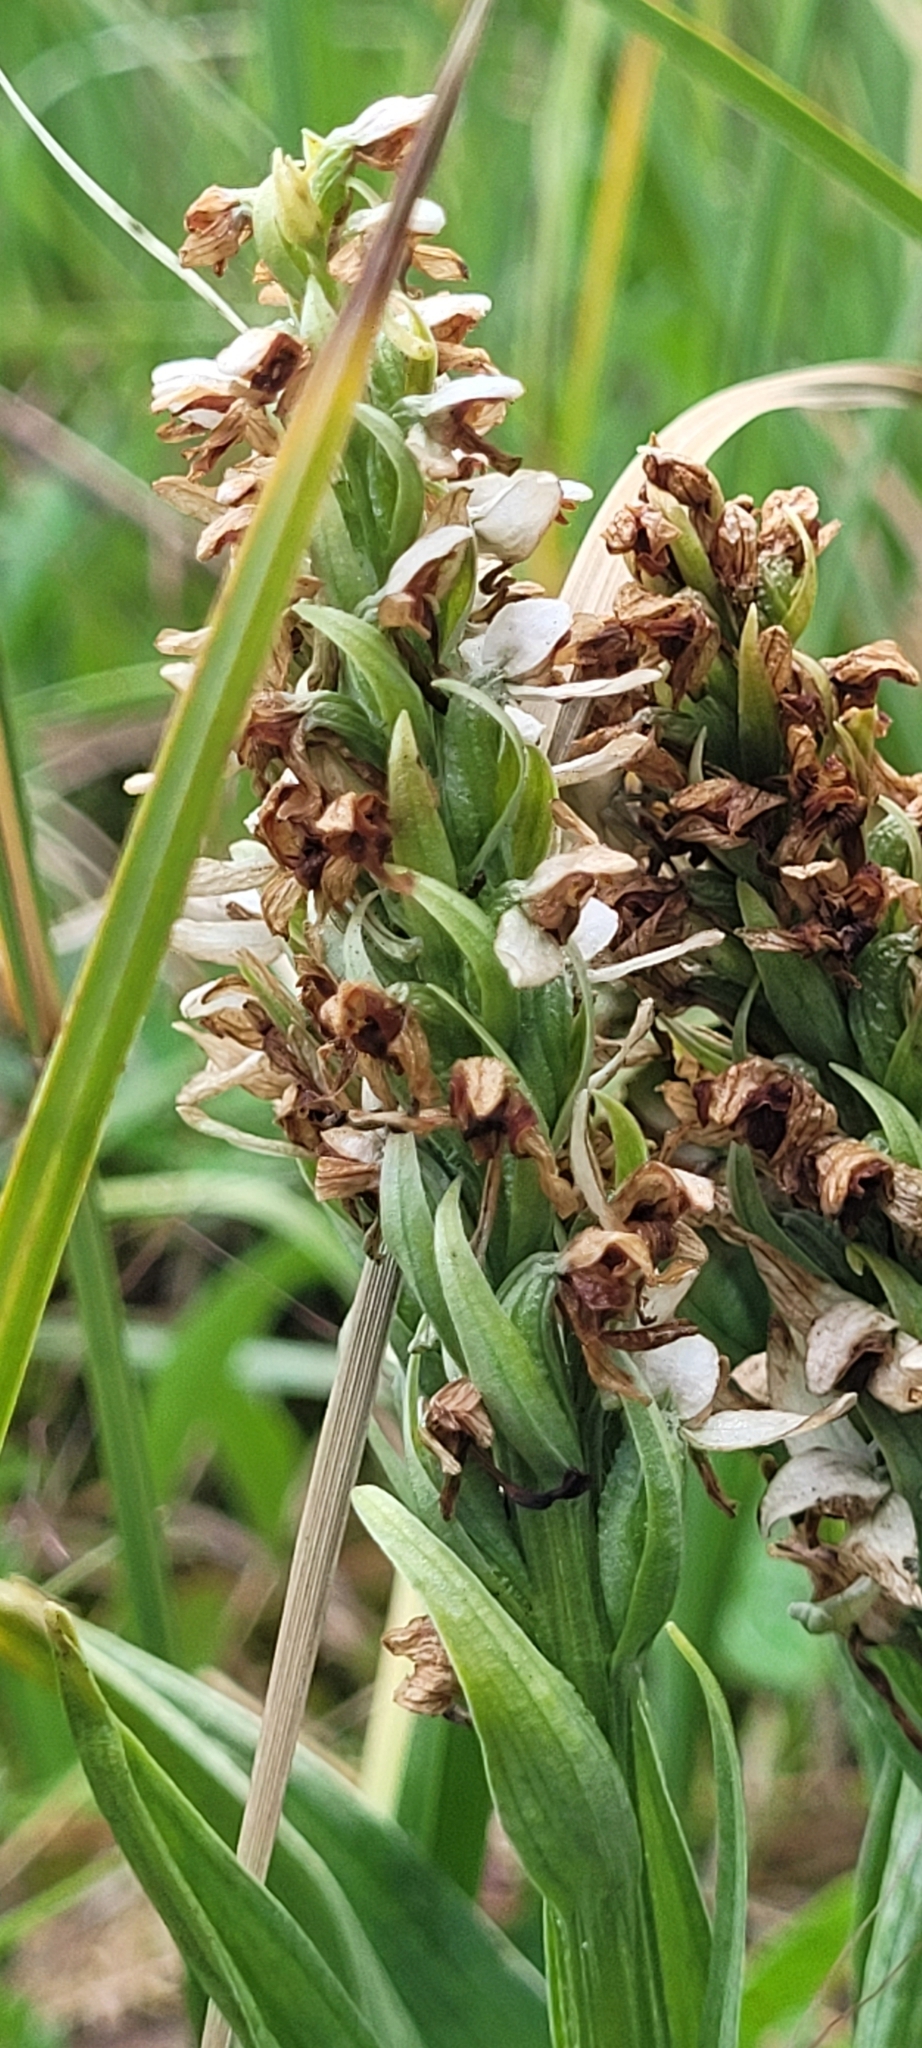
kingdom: Plantae
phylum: Tracheophyta
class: Liliopsida
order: Asparagales
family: Orchidaceae
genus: Platanthera
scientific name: Platanthera dilatata
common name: Bog candles
